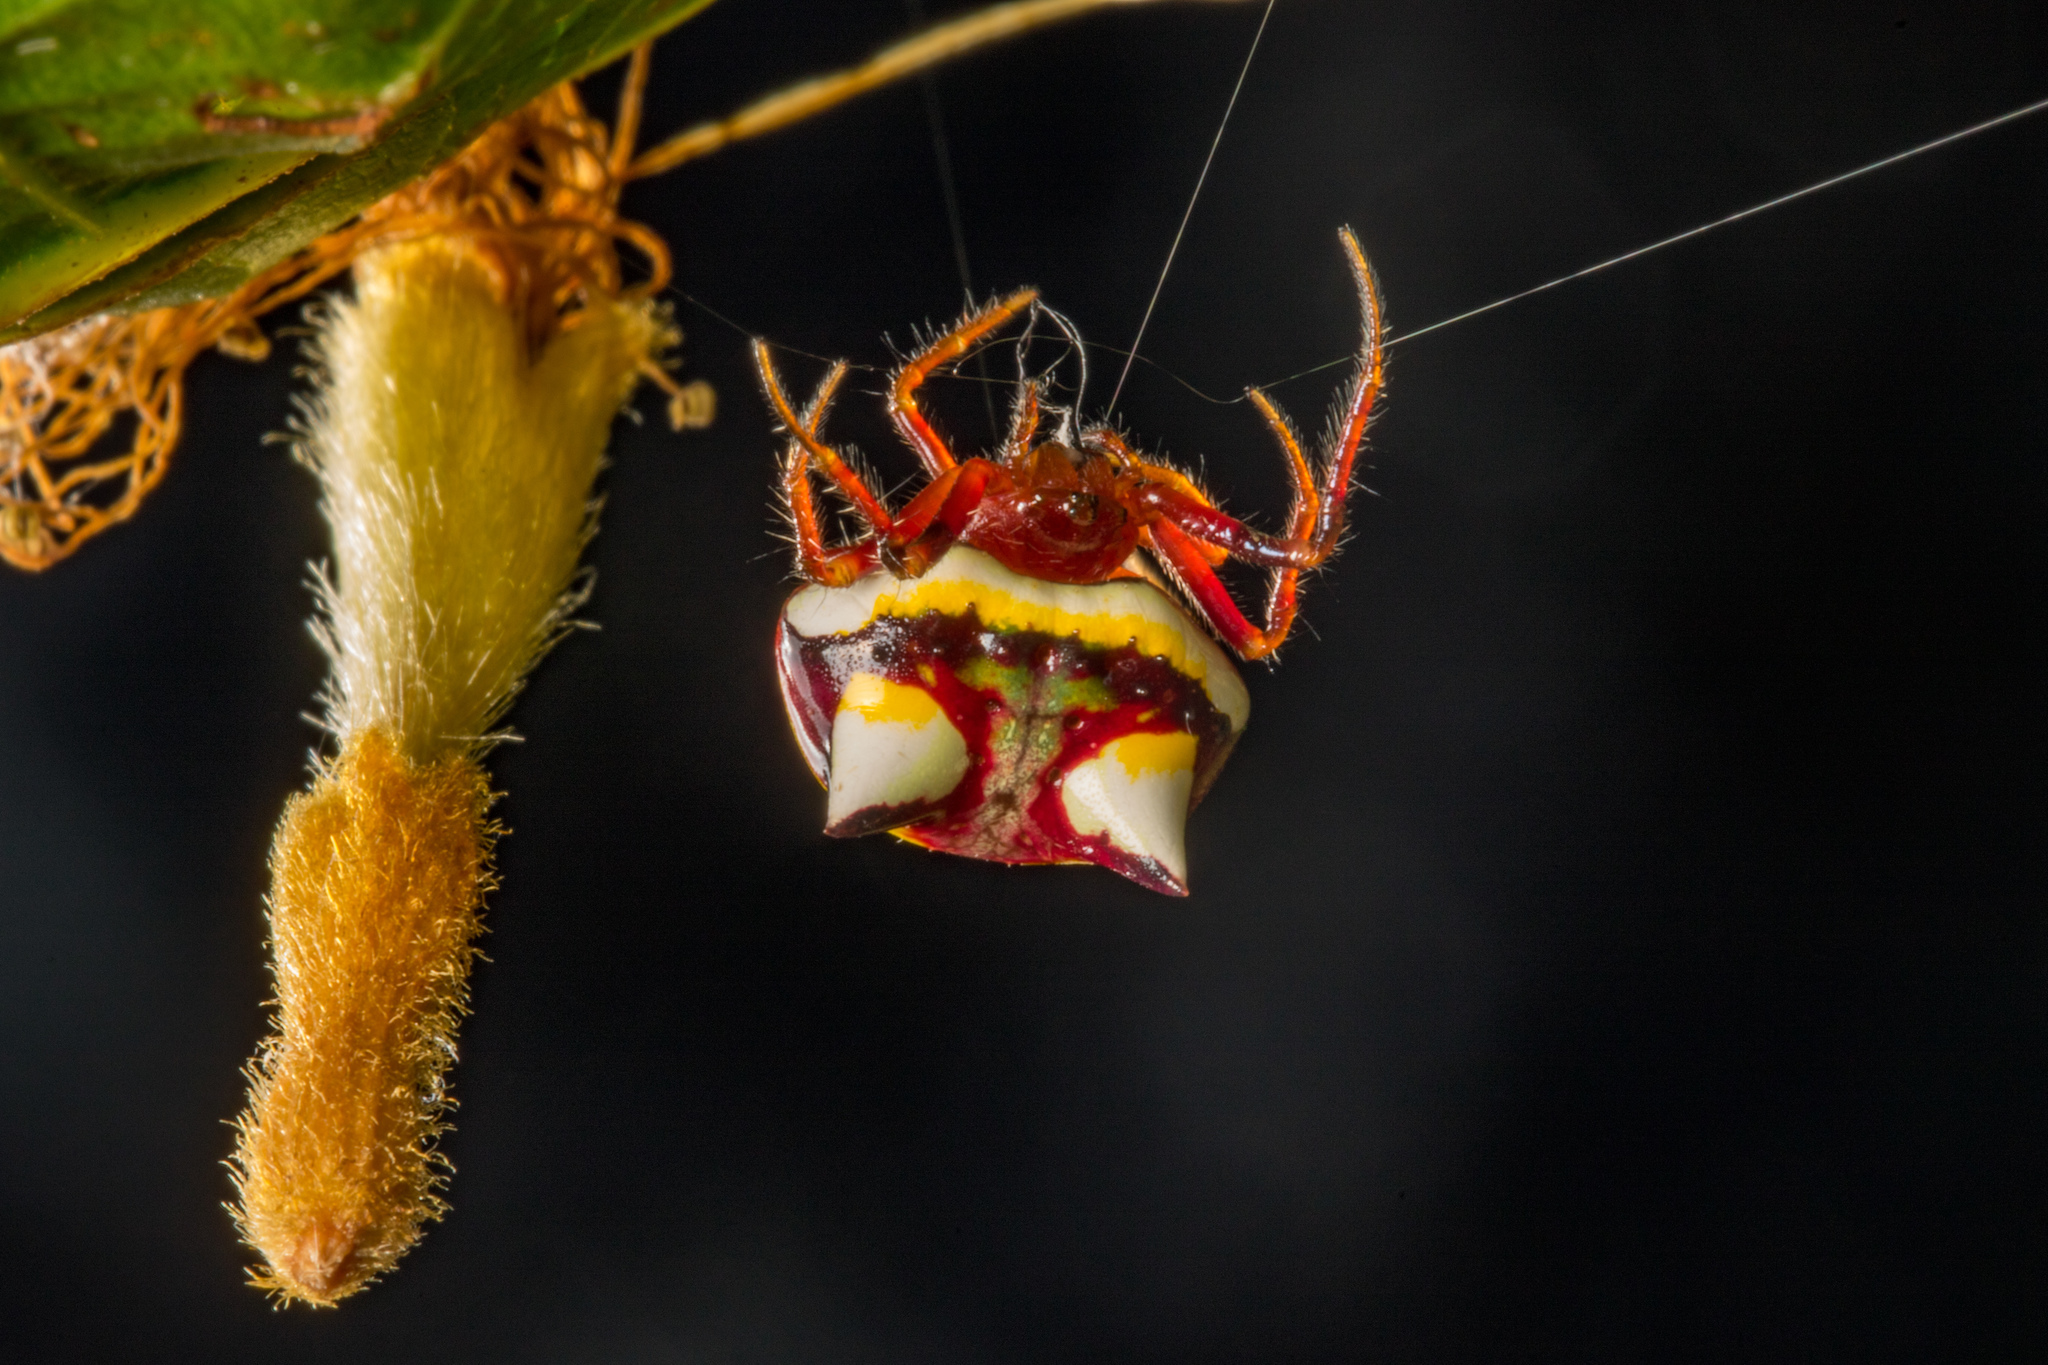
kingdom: Animalia
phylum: Arthropoda
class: Arachnida
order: Araneae
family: Araneidae
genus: Poecilopachys
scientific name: Poecilopachys australasia
